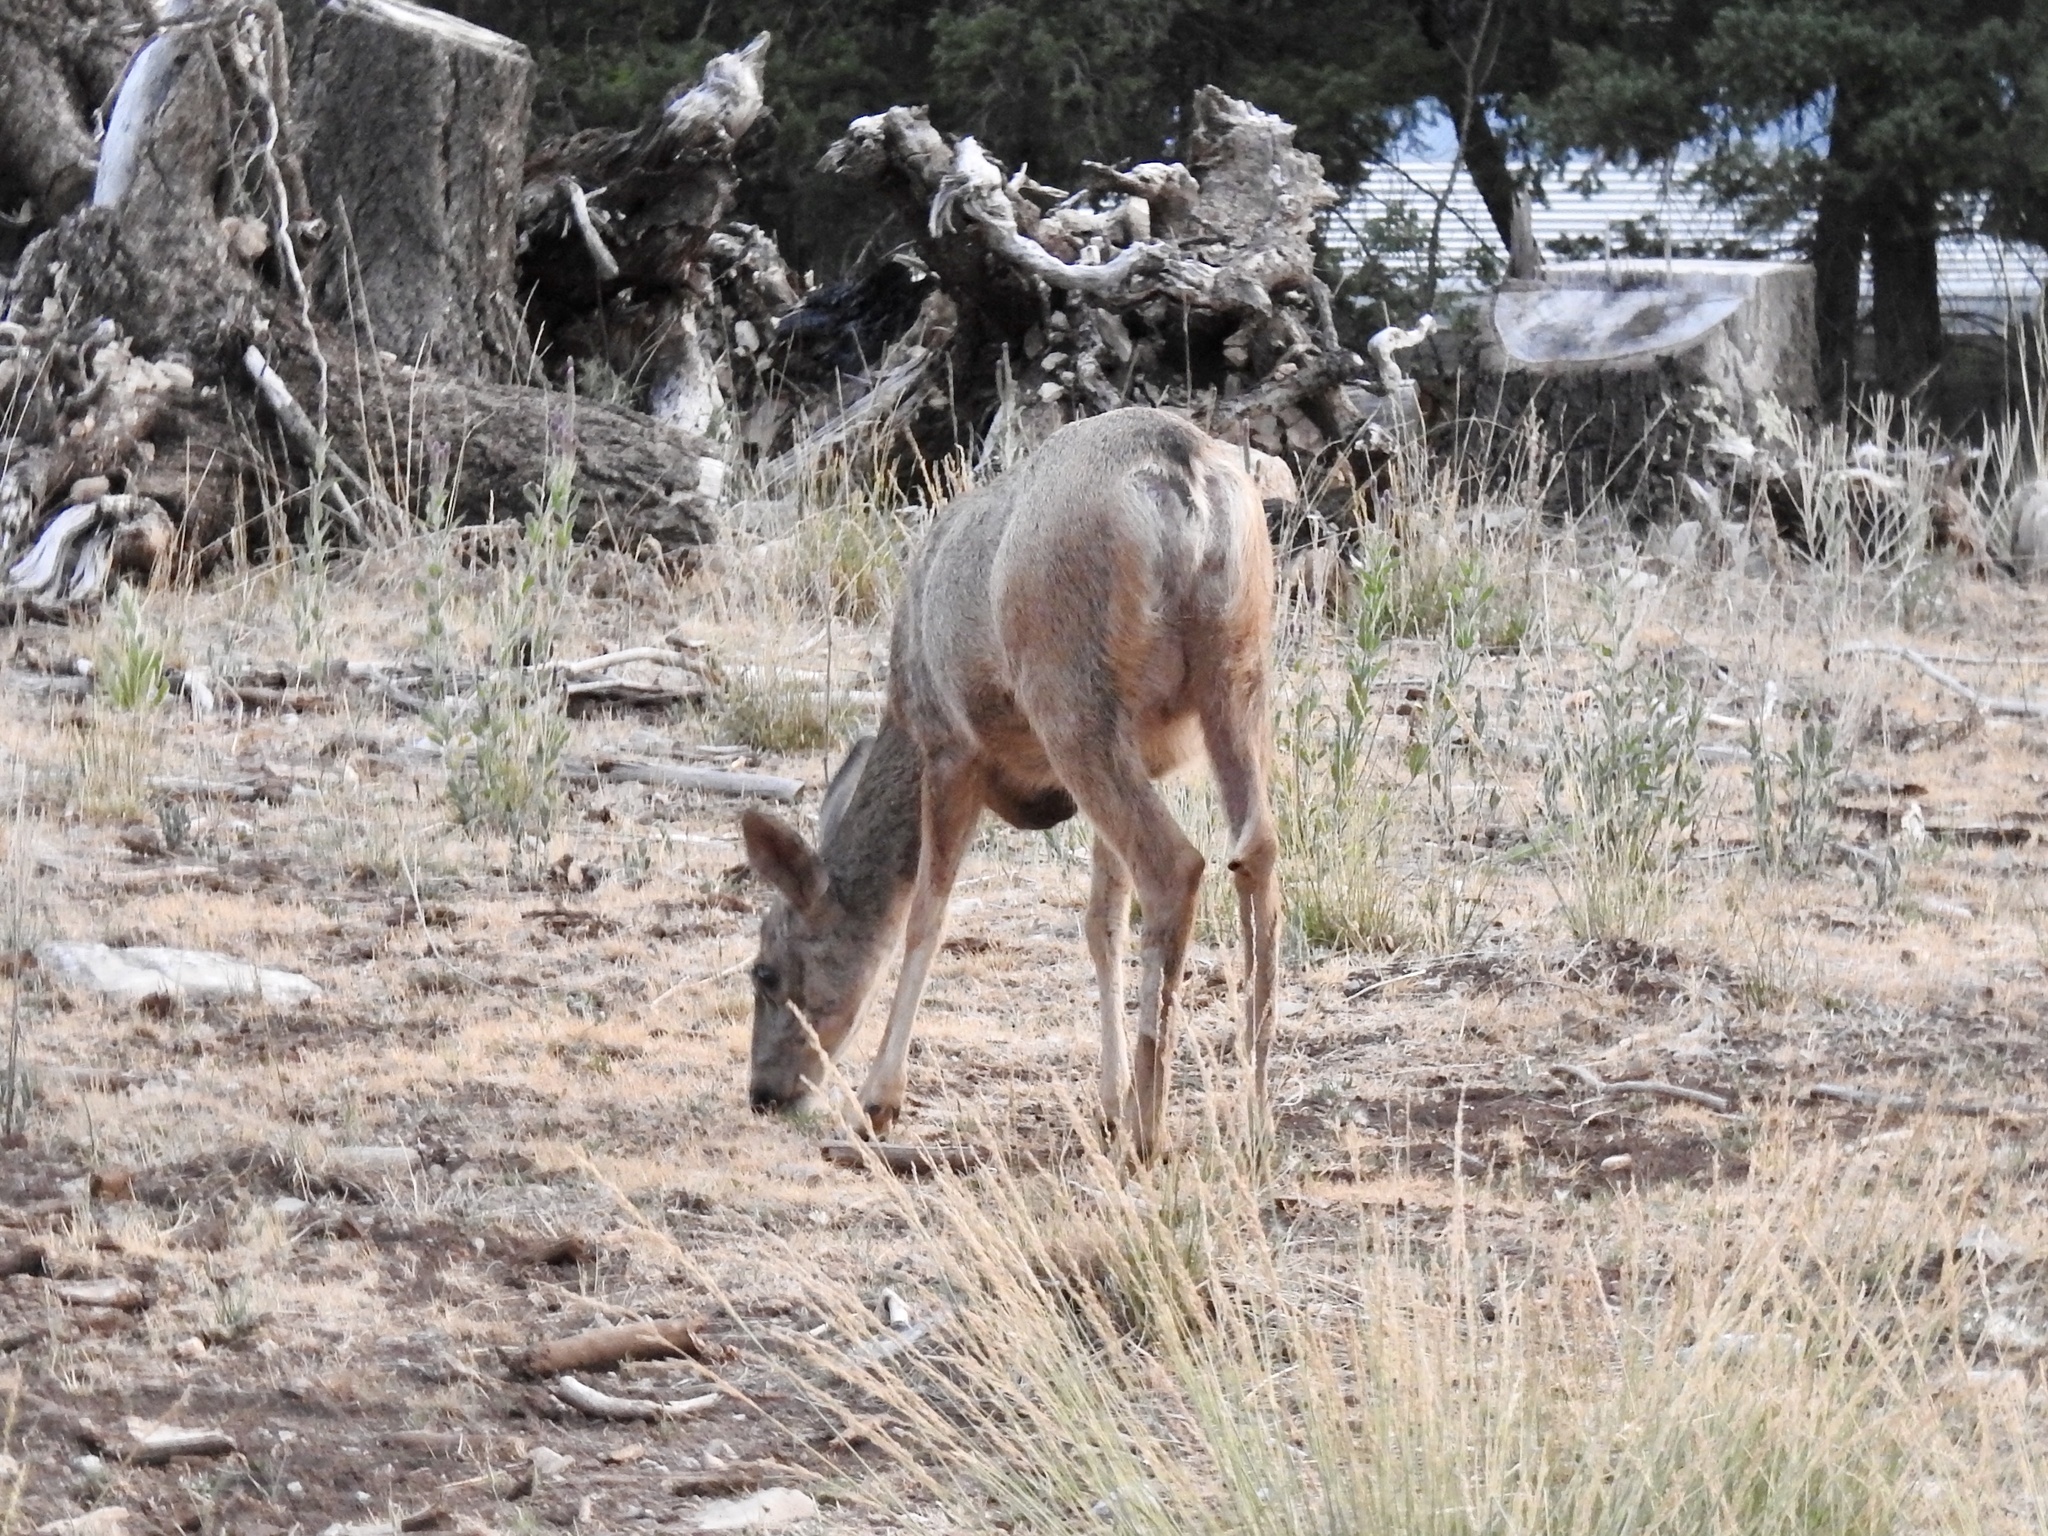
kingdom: Animalia
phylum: Chordata
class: Mammalia
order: Artiodactyla
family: Cervidae
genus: Odocoileus
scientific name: Odocoileus hemionus
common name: Mule deer
